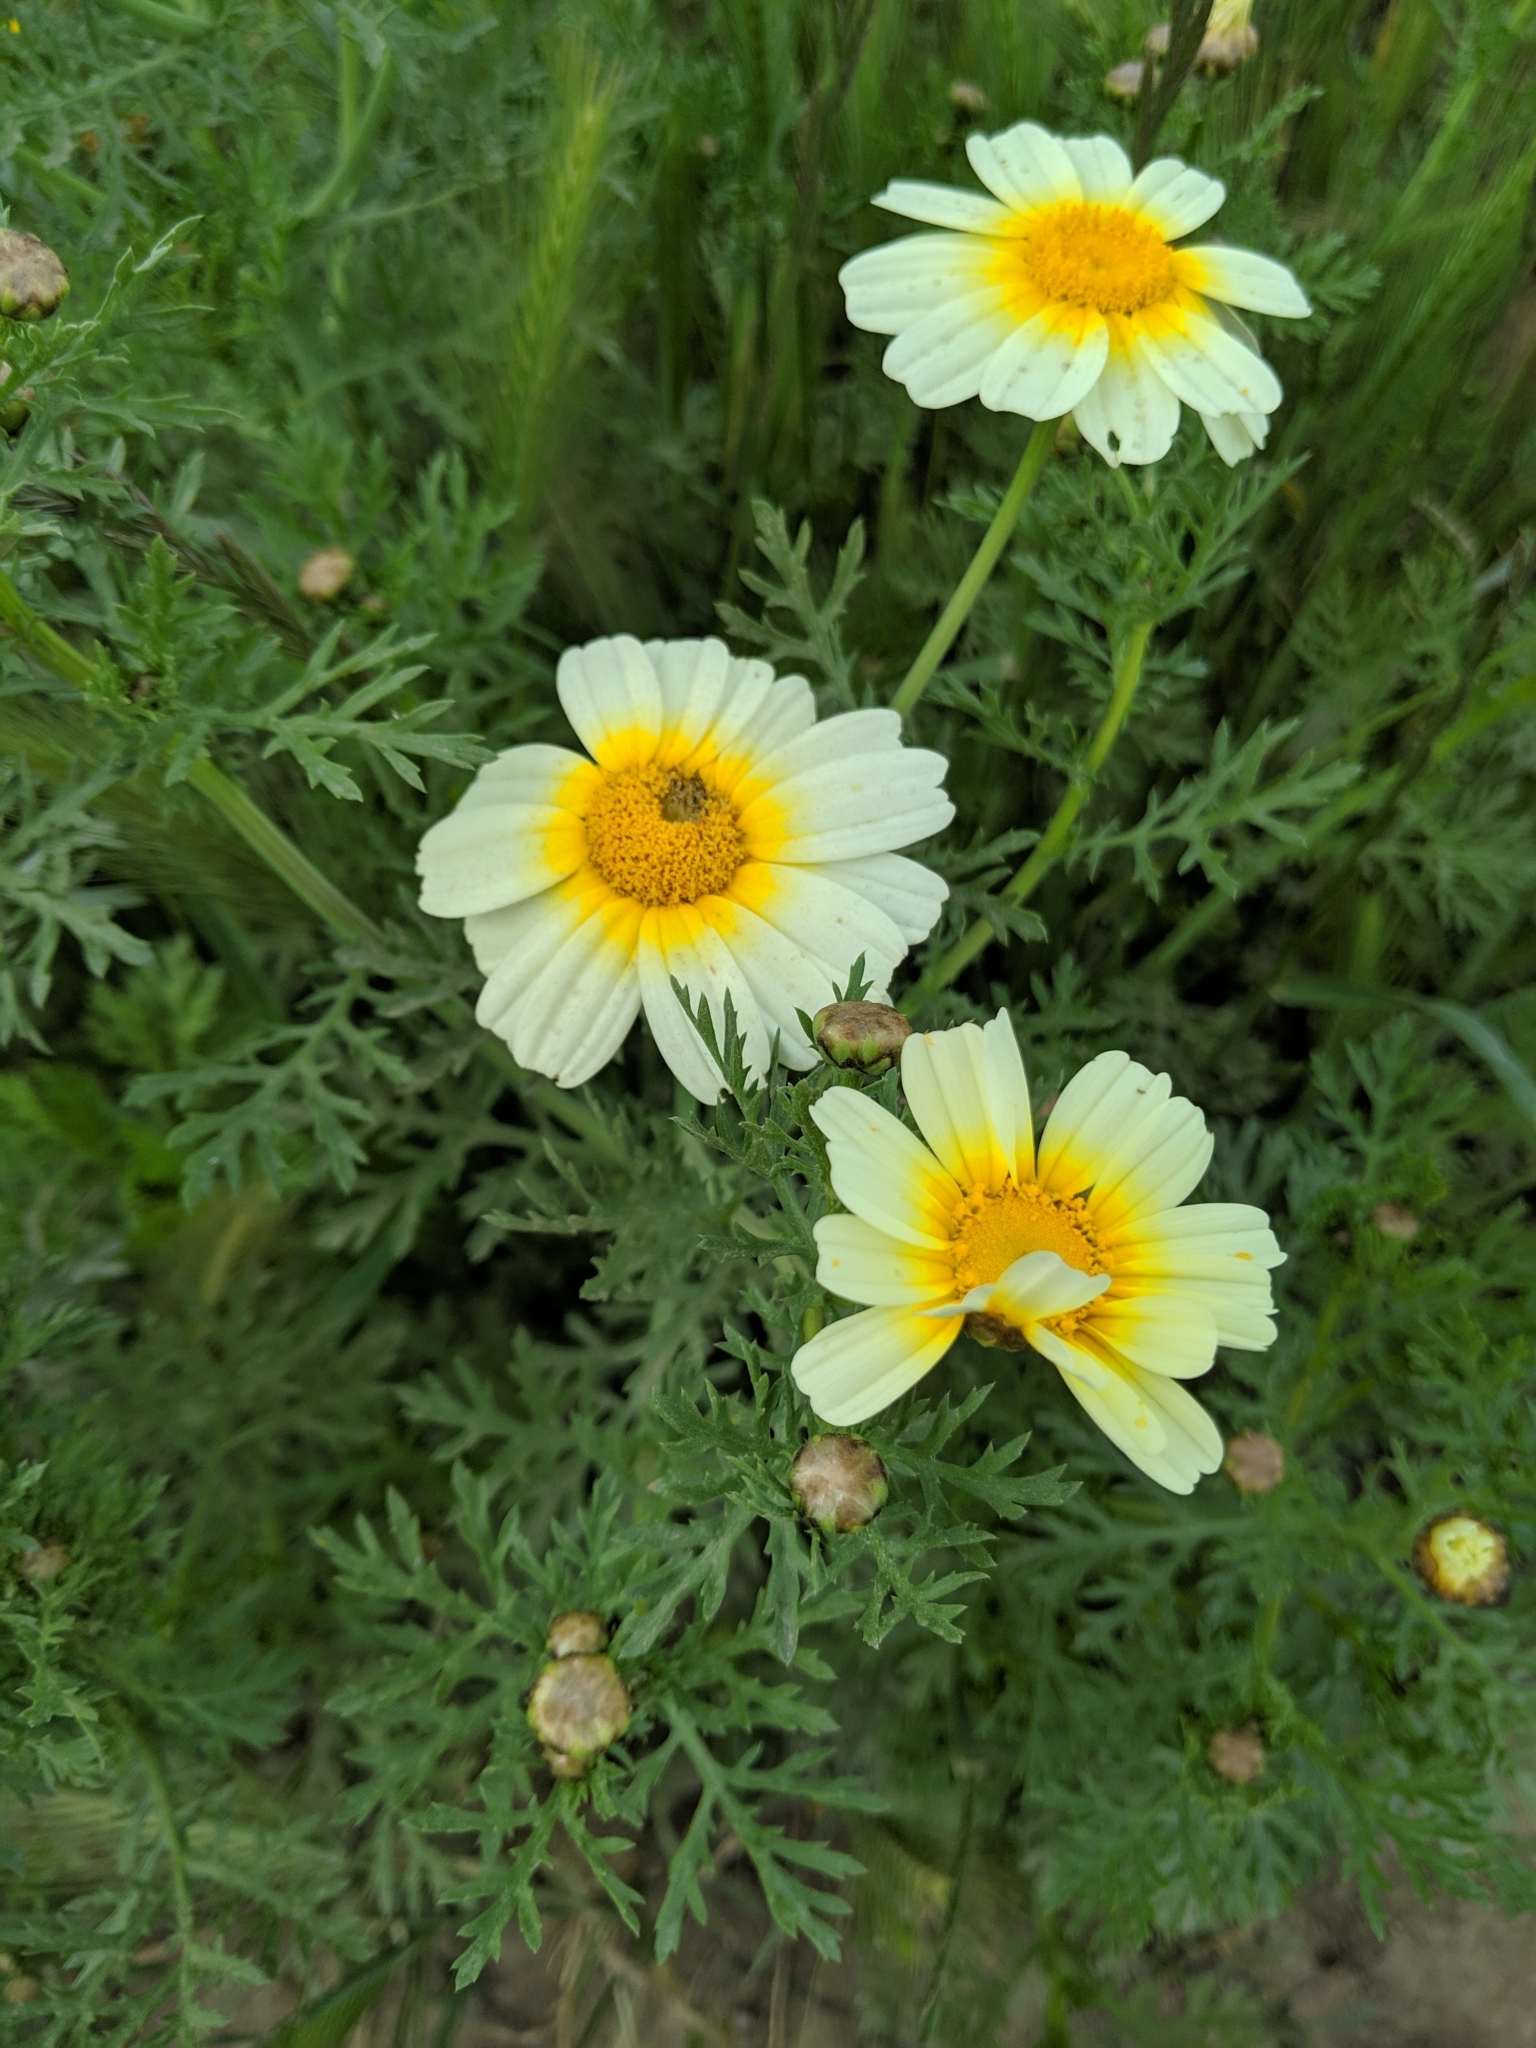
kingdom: Plantae
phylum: Tracheophyta
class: Magnoliopsida
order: Asterales
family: Asteraceae
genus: Glebionis
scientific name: Glebionis coronaria
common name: Crowndaisy
